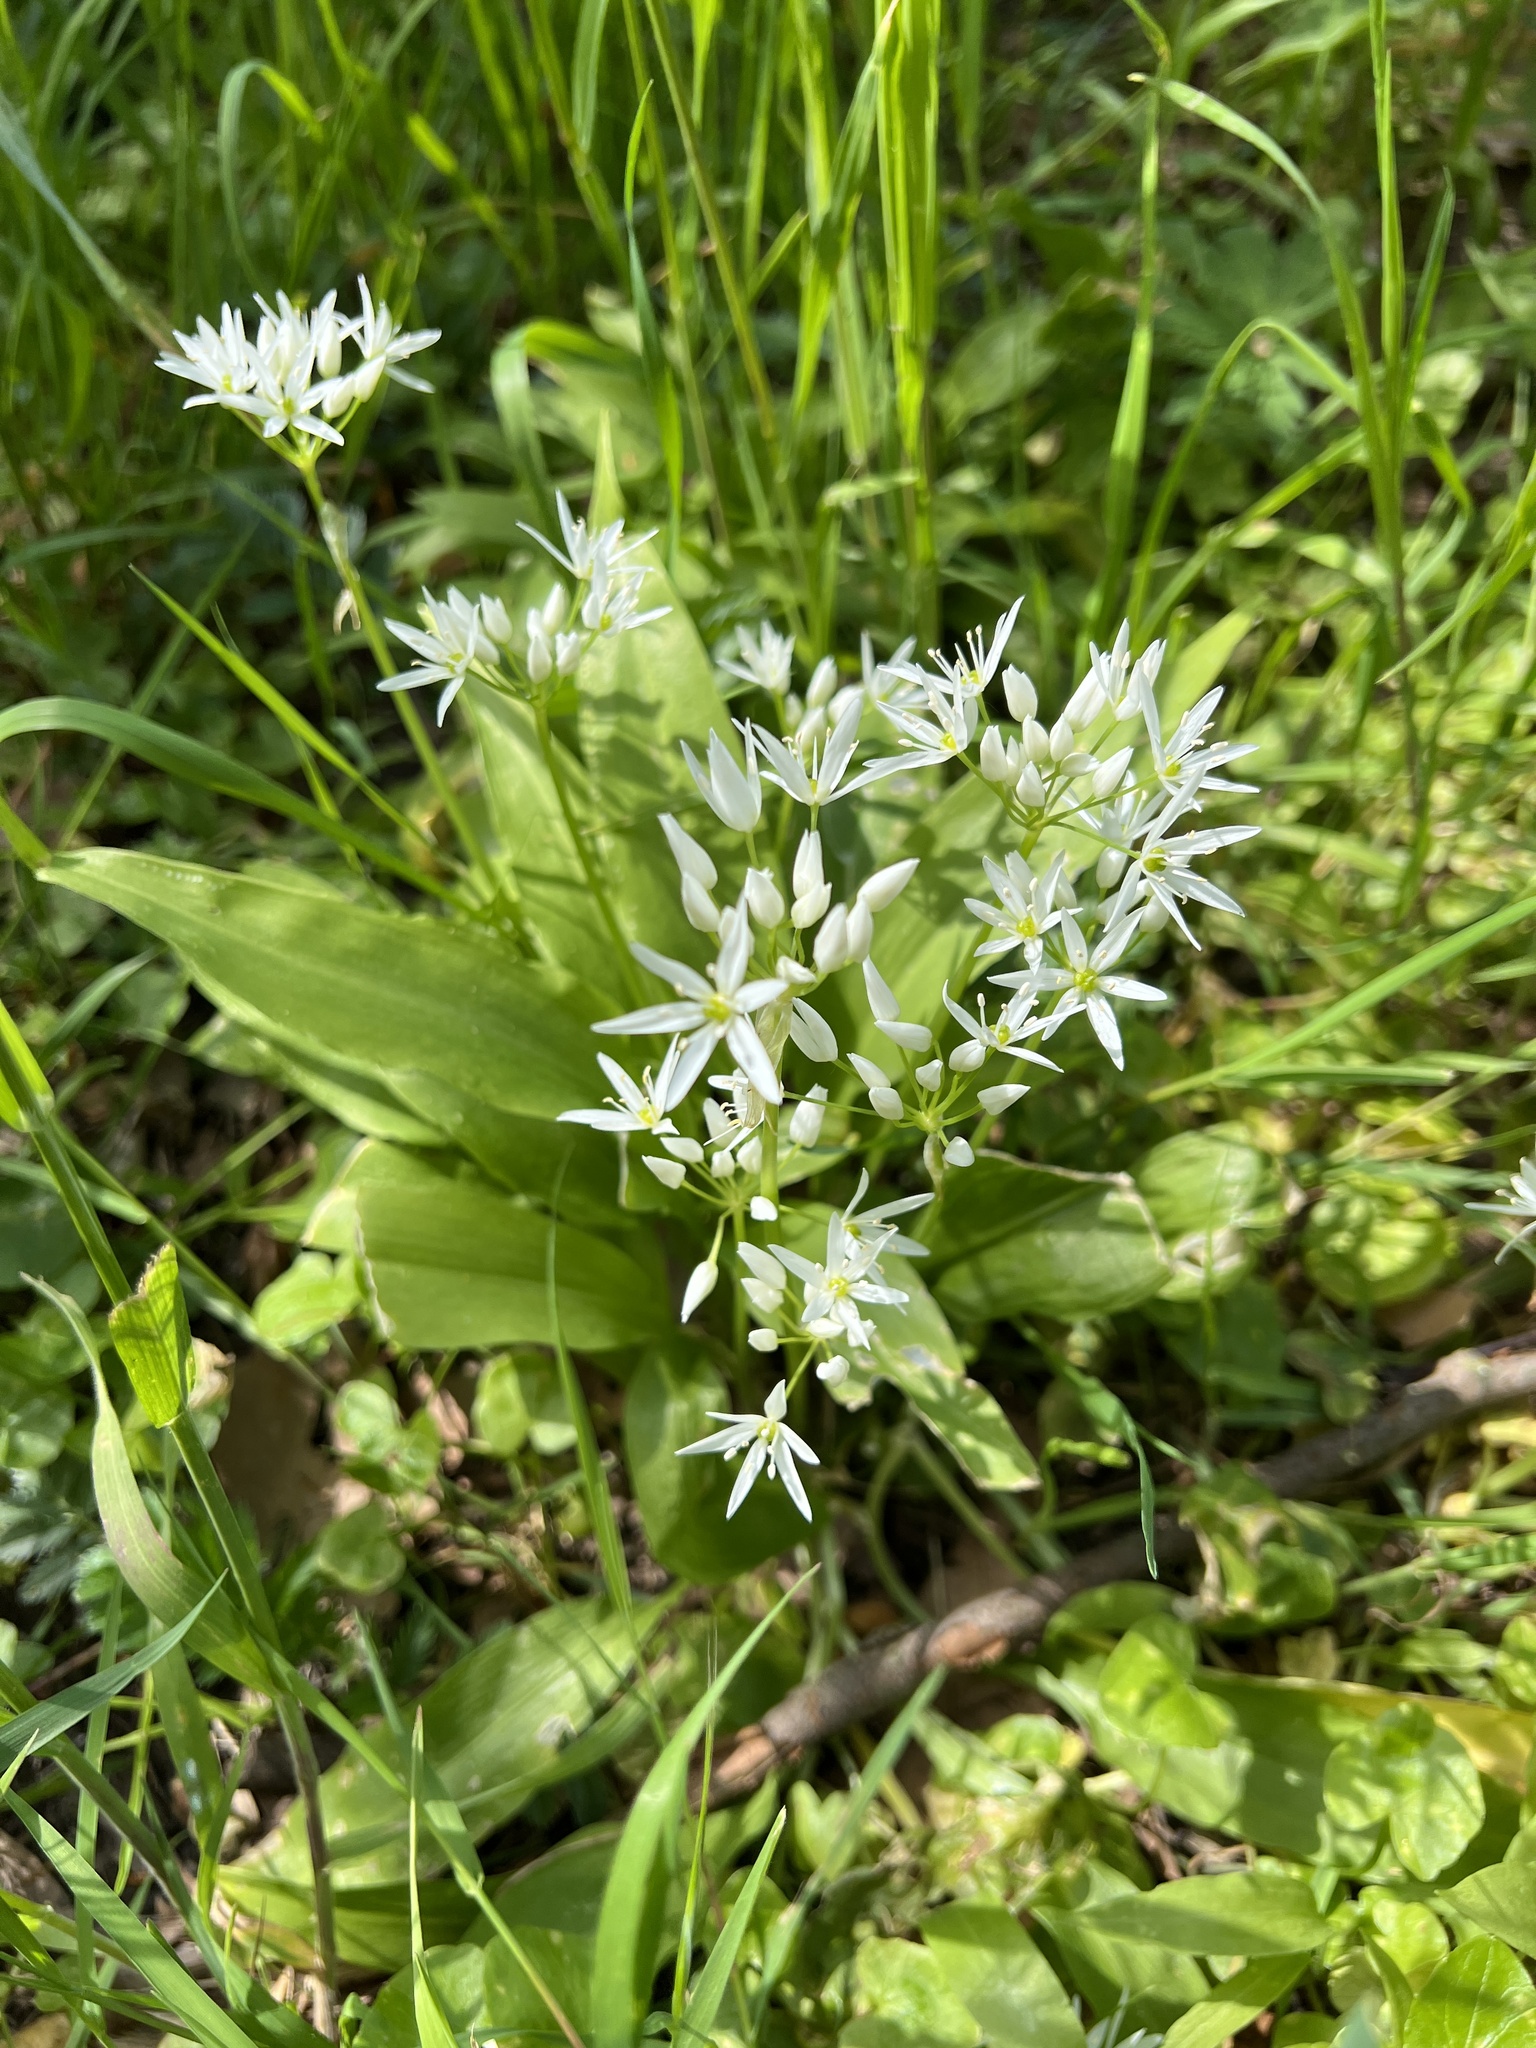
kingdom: Plantae
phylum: Tracheophyta
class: Liliopsida
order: Asparagales
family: Amaryllidaceae
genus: Allium
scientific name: Allium ursinum
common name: Ramsons
